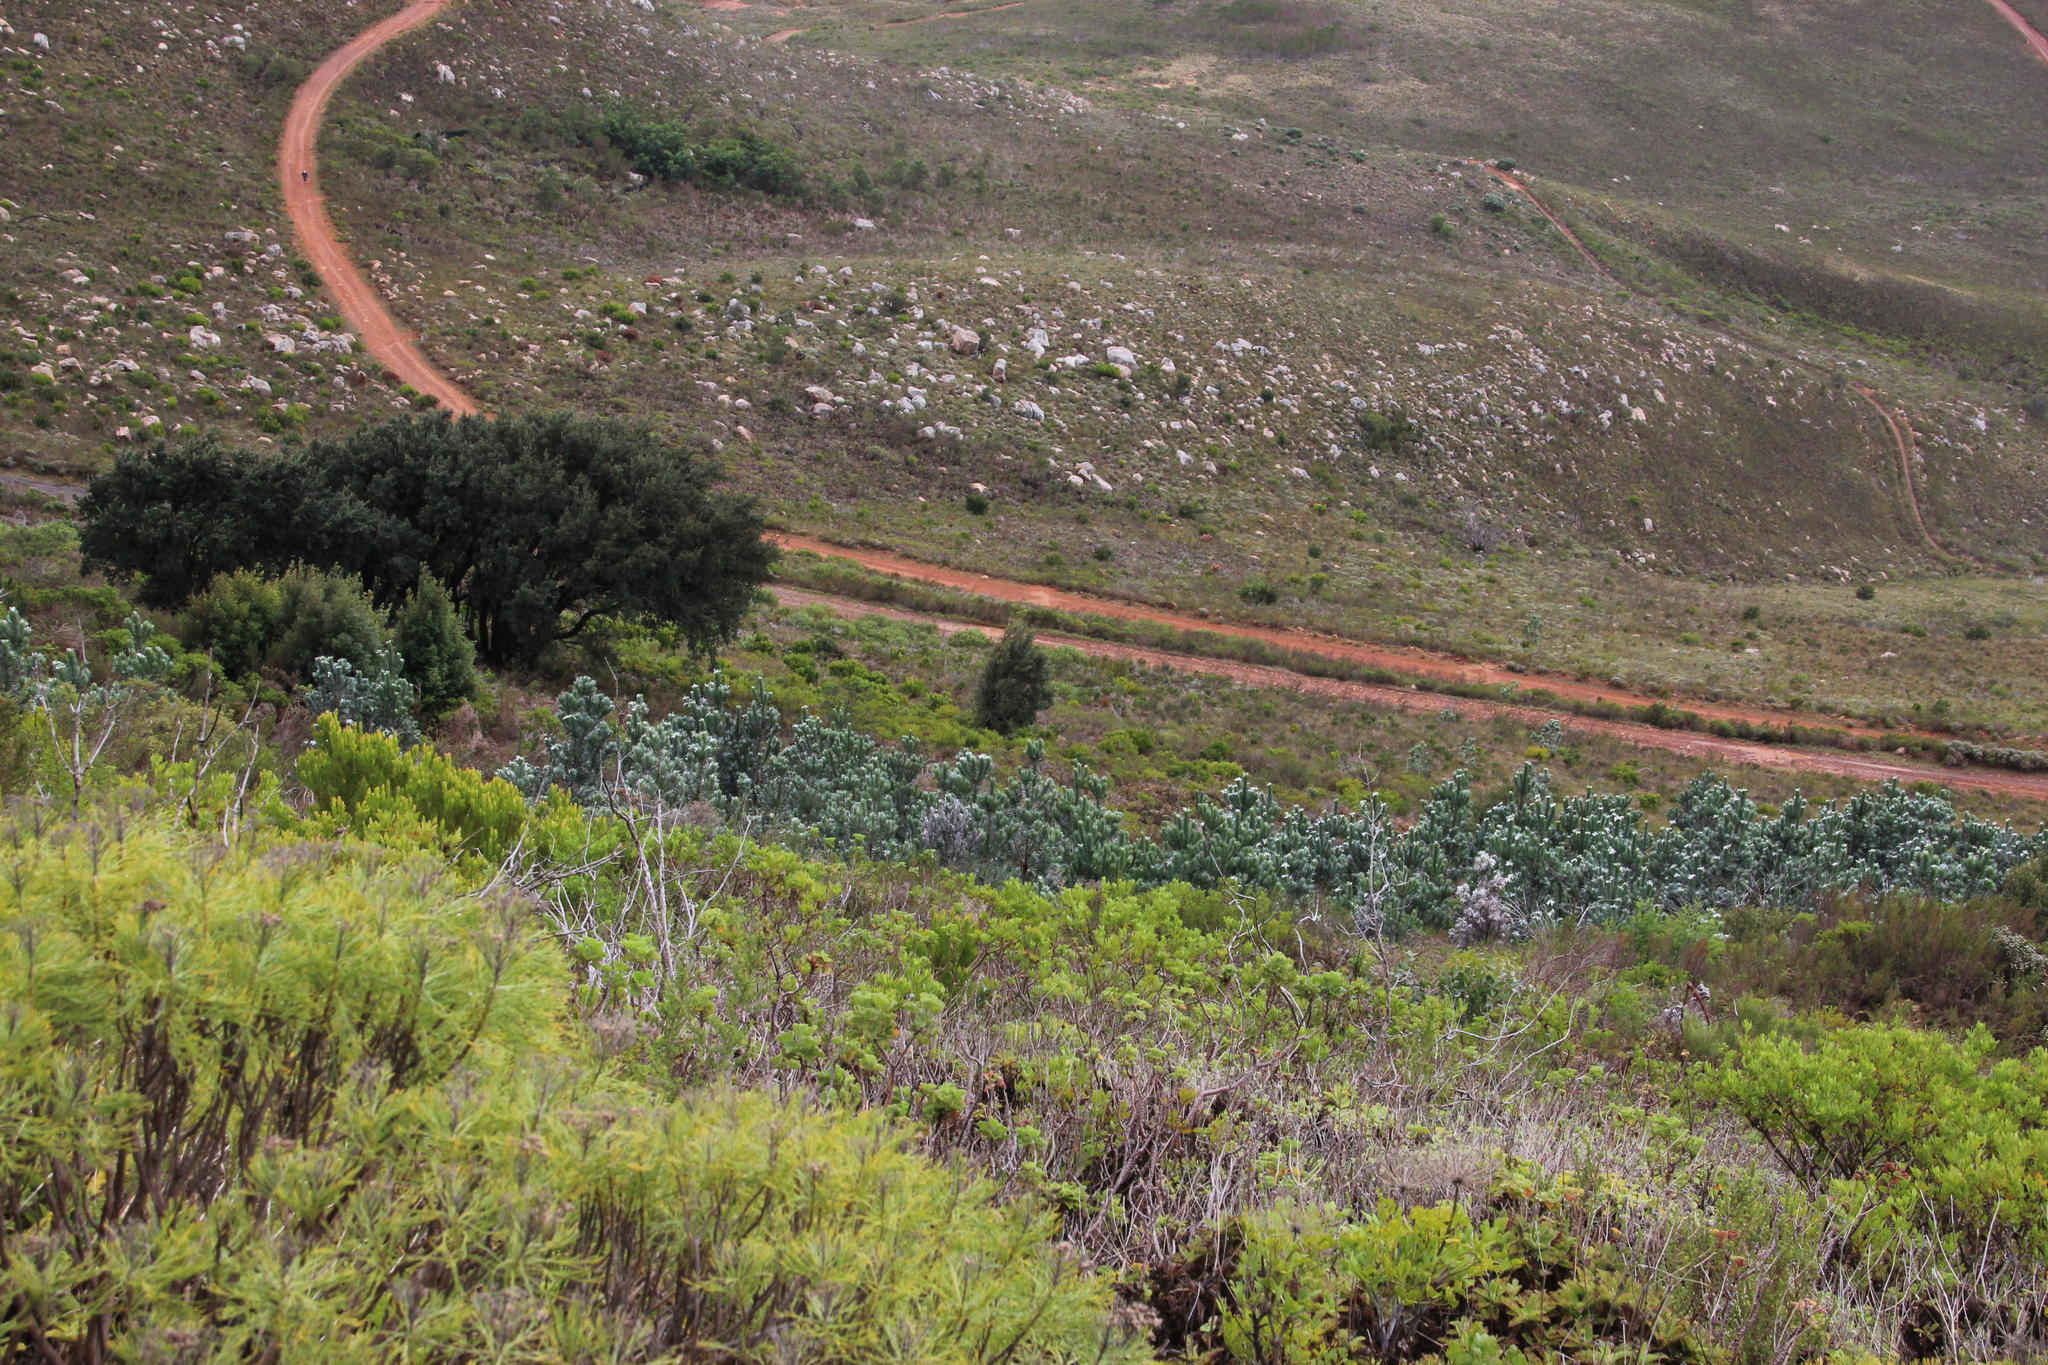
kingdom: Plantae
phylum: Tracheophyta
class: Magnoliopsida
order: Proteales
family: Proteaceae
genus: Leucadendron
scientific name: Leucadendron argenteum
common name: Cape silver tree
